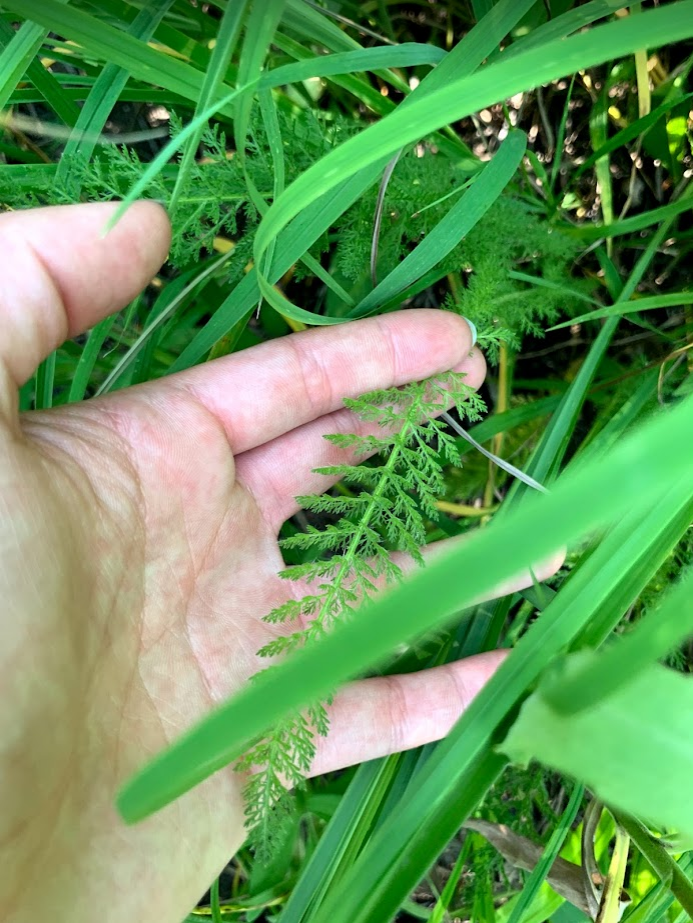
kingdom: Plantae
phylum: Tracheophyta
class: Magnoliopsida
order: Asterales
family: Asteraceae
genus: Achillea
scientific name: Achillea millefolium
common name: Yarrow
